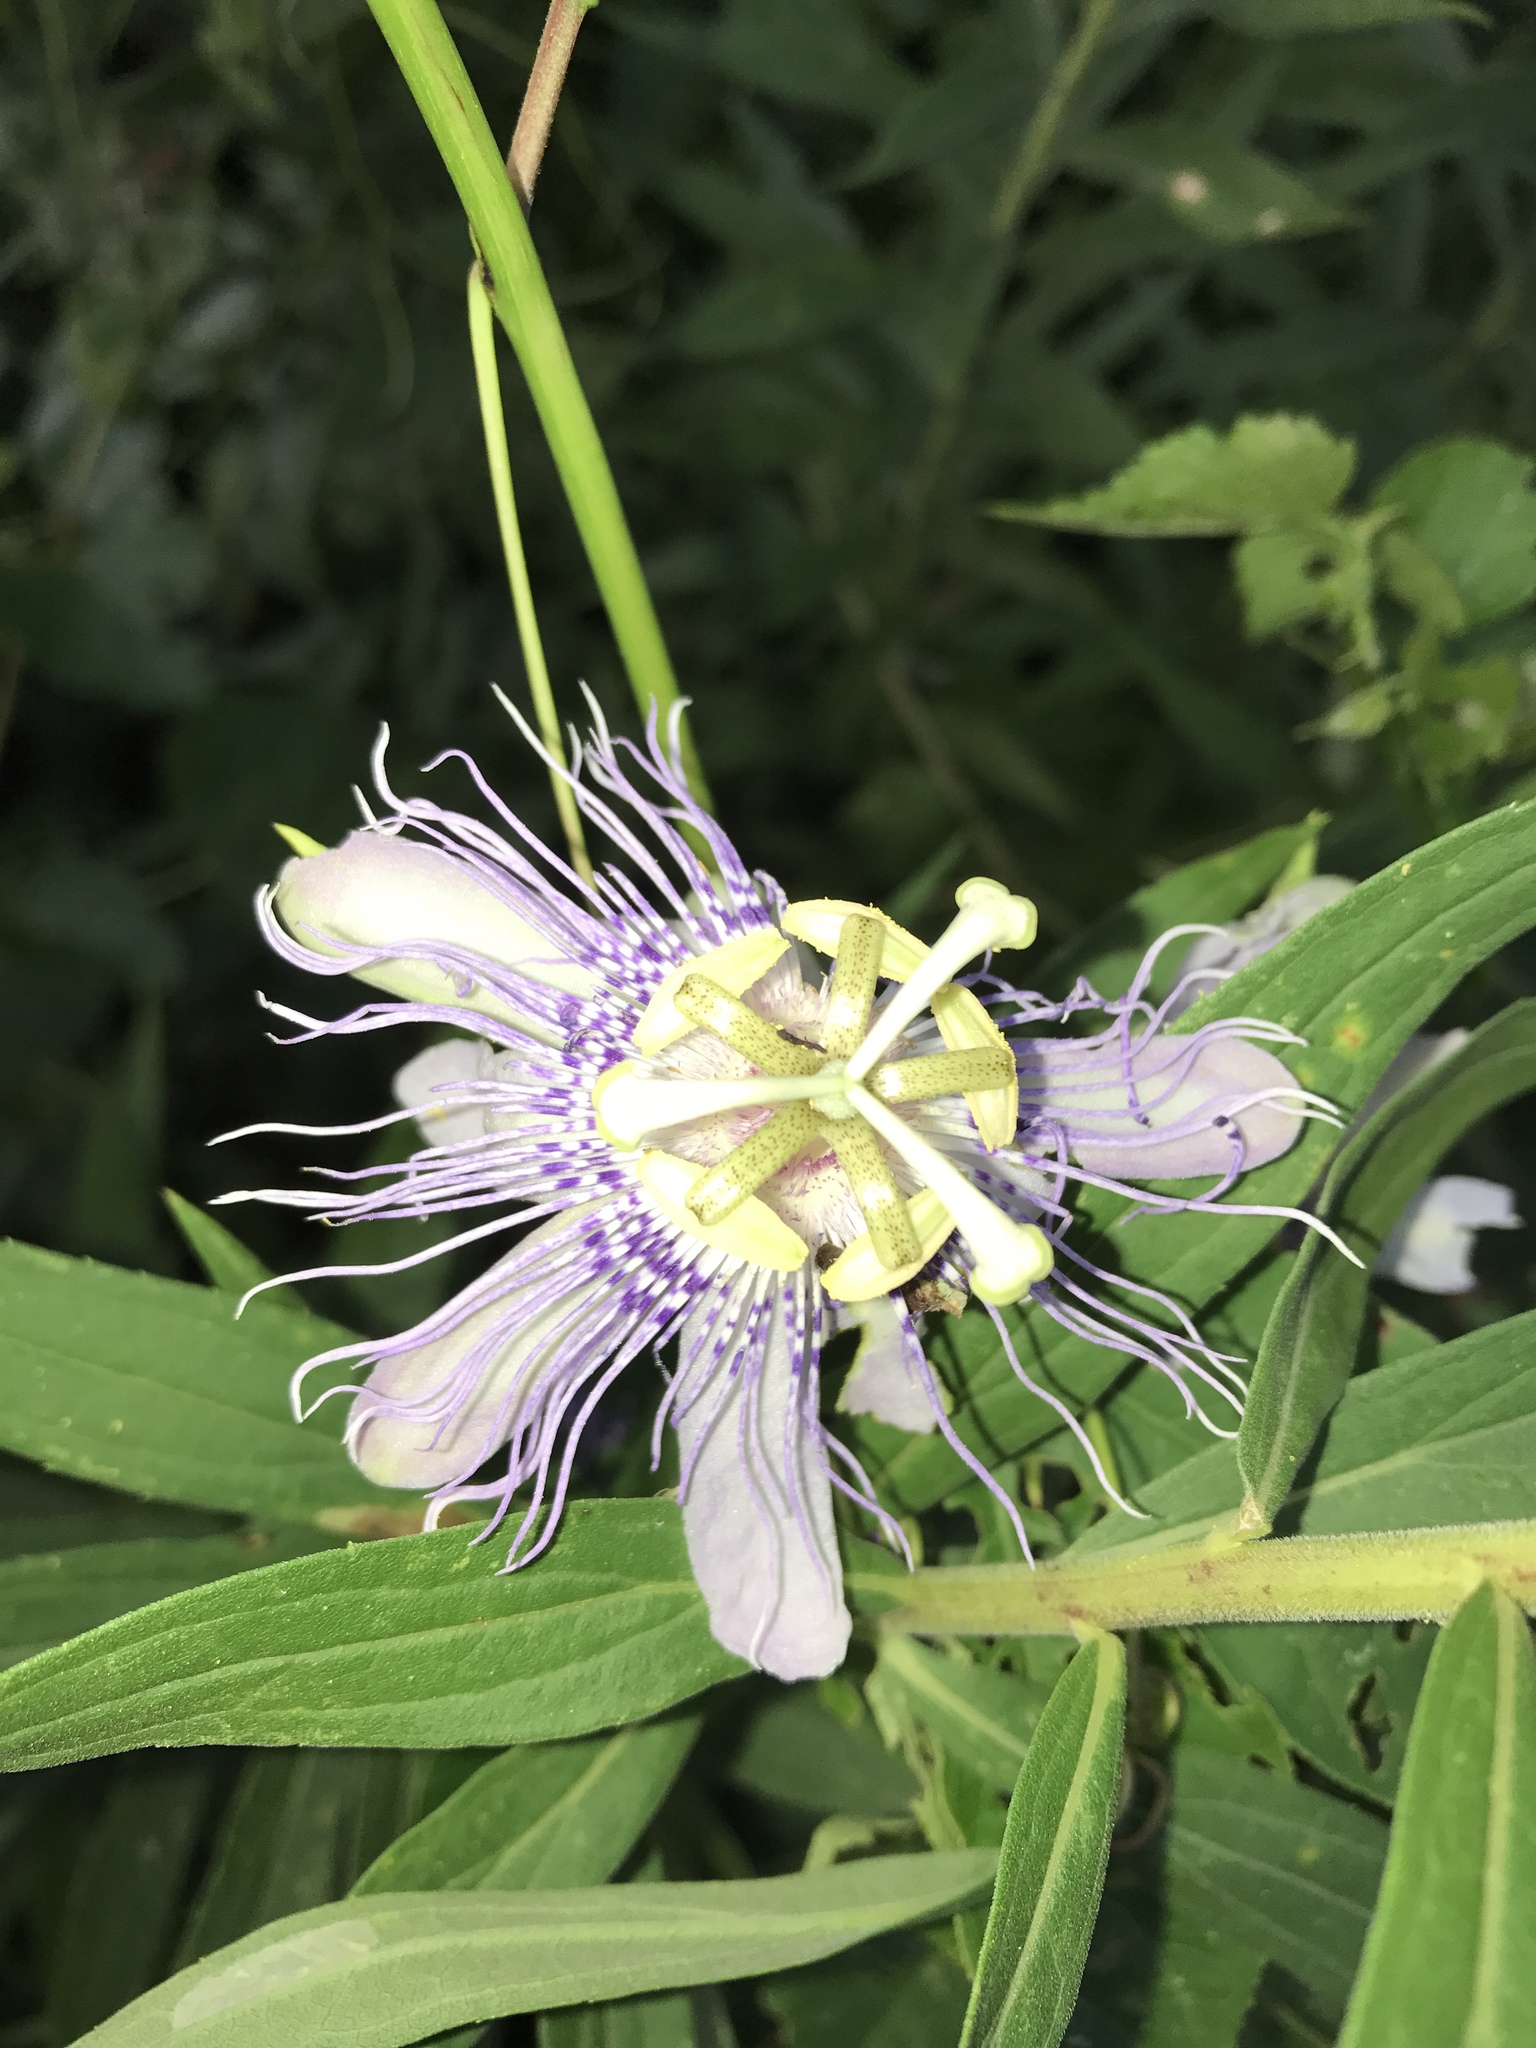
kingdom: Plantae
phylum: Tracheophyta
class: Magnoliopsida
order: Malpighiales
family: Passifloraceae
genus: Passiflora
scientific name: Passiflora incarnata
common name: Apricot-vine
